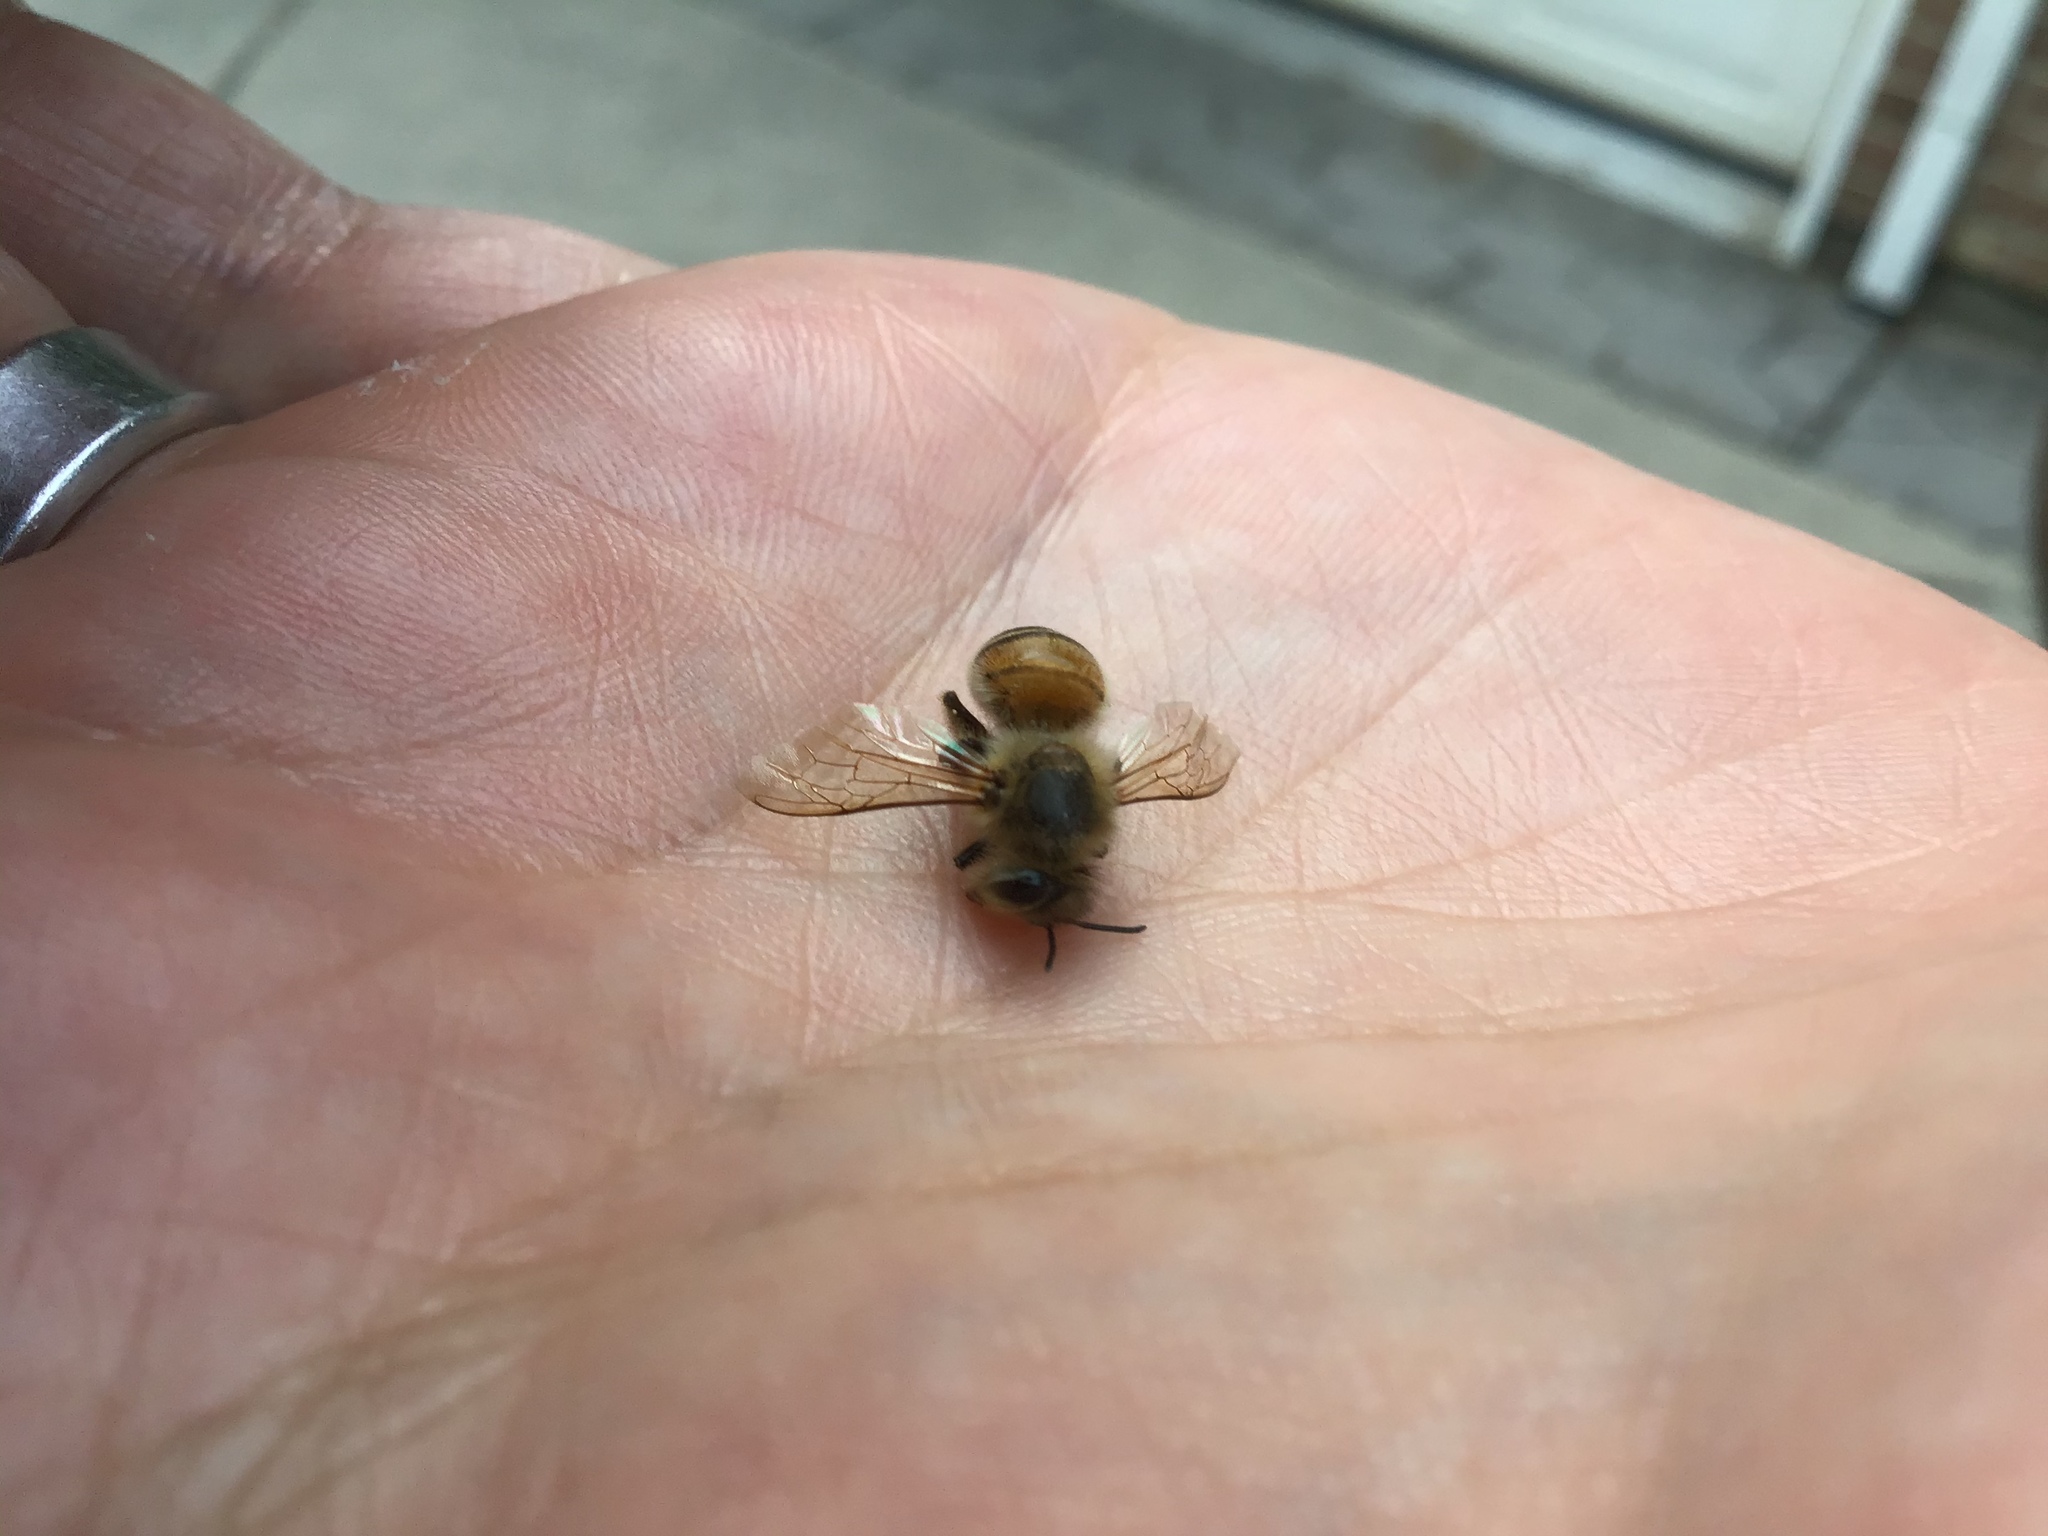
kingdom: Animalia
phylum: Arthropoda
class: Insecta
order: Hymenoptera
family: Apidae
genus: Apis
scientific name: Apis mellifera
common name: Honey bee
